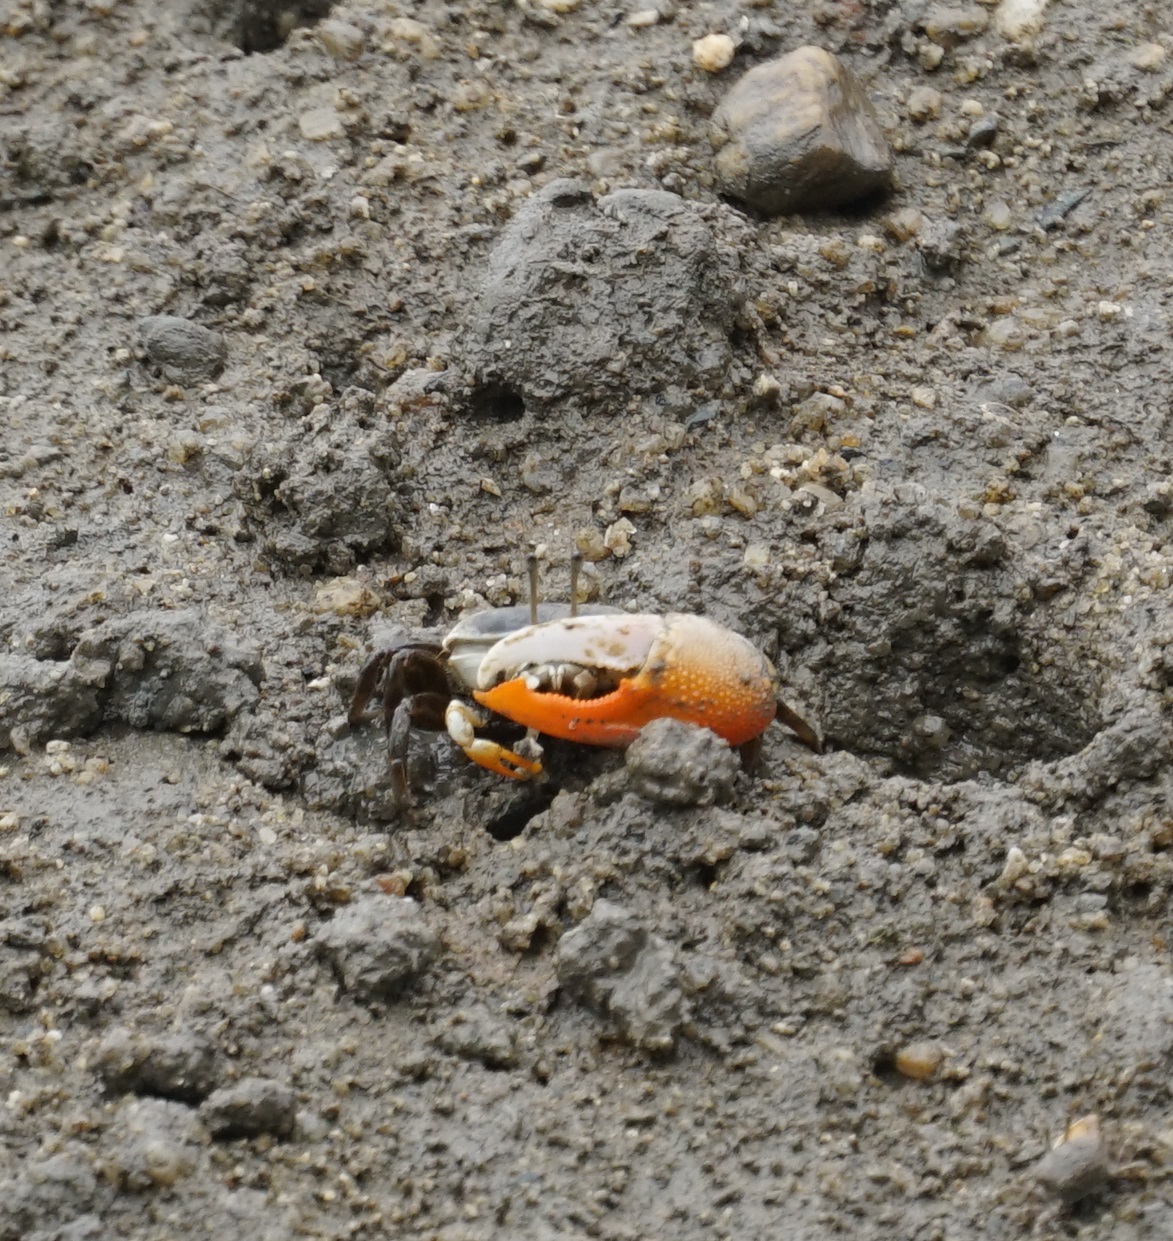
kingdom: Animalia
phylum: Arthropoda
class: Malacostraca
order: Decapoda
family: Ocypodidae
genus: Gelasimus
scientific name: Gelasimus vomeris
